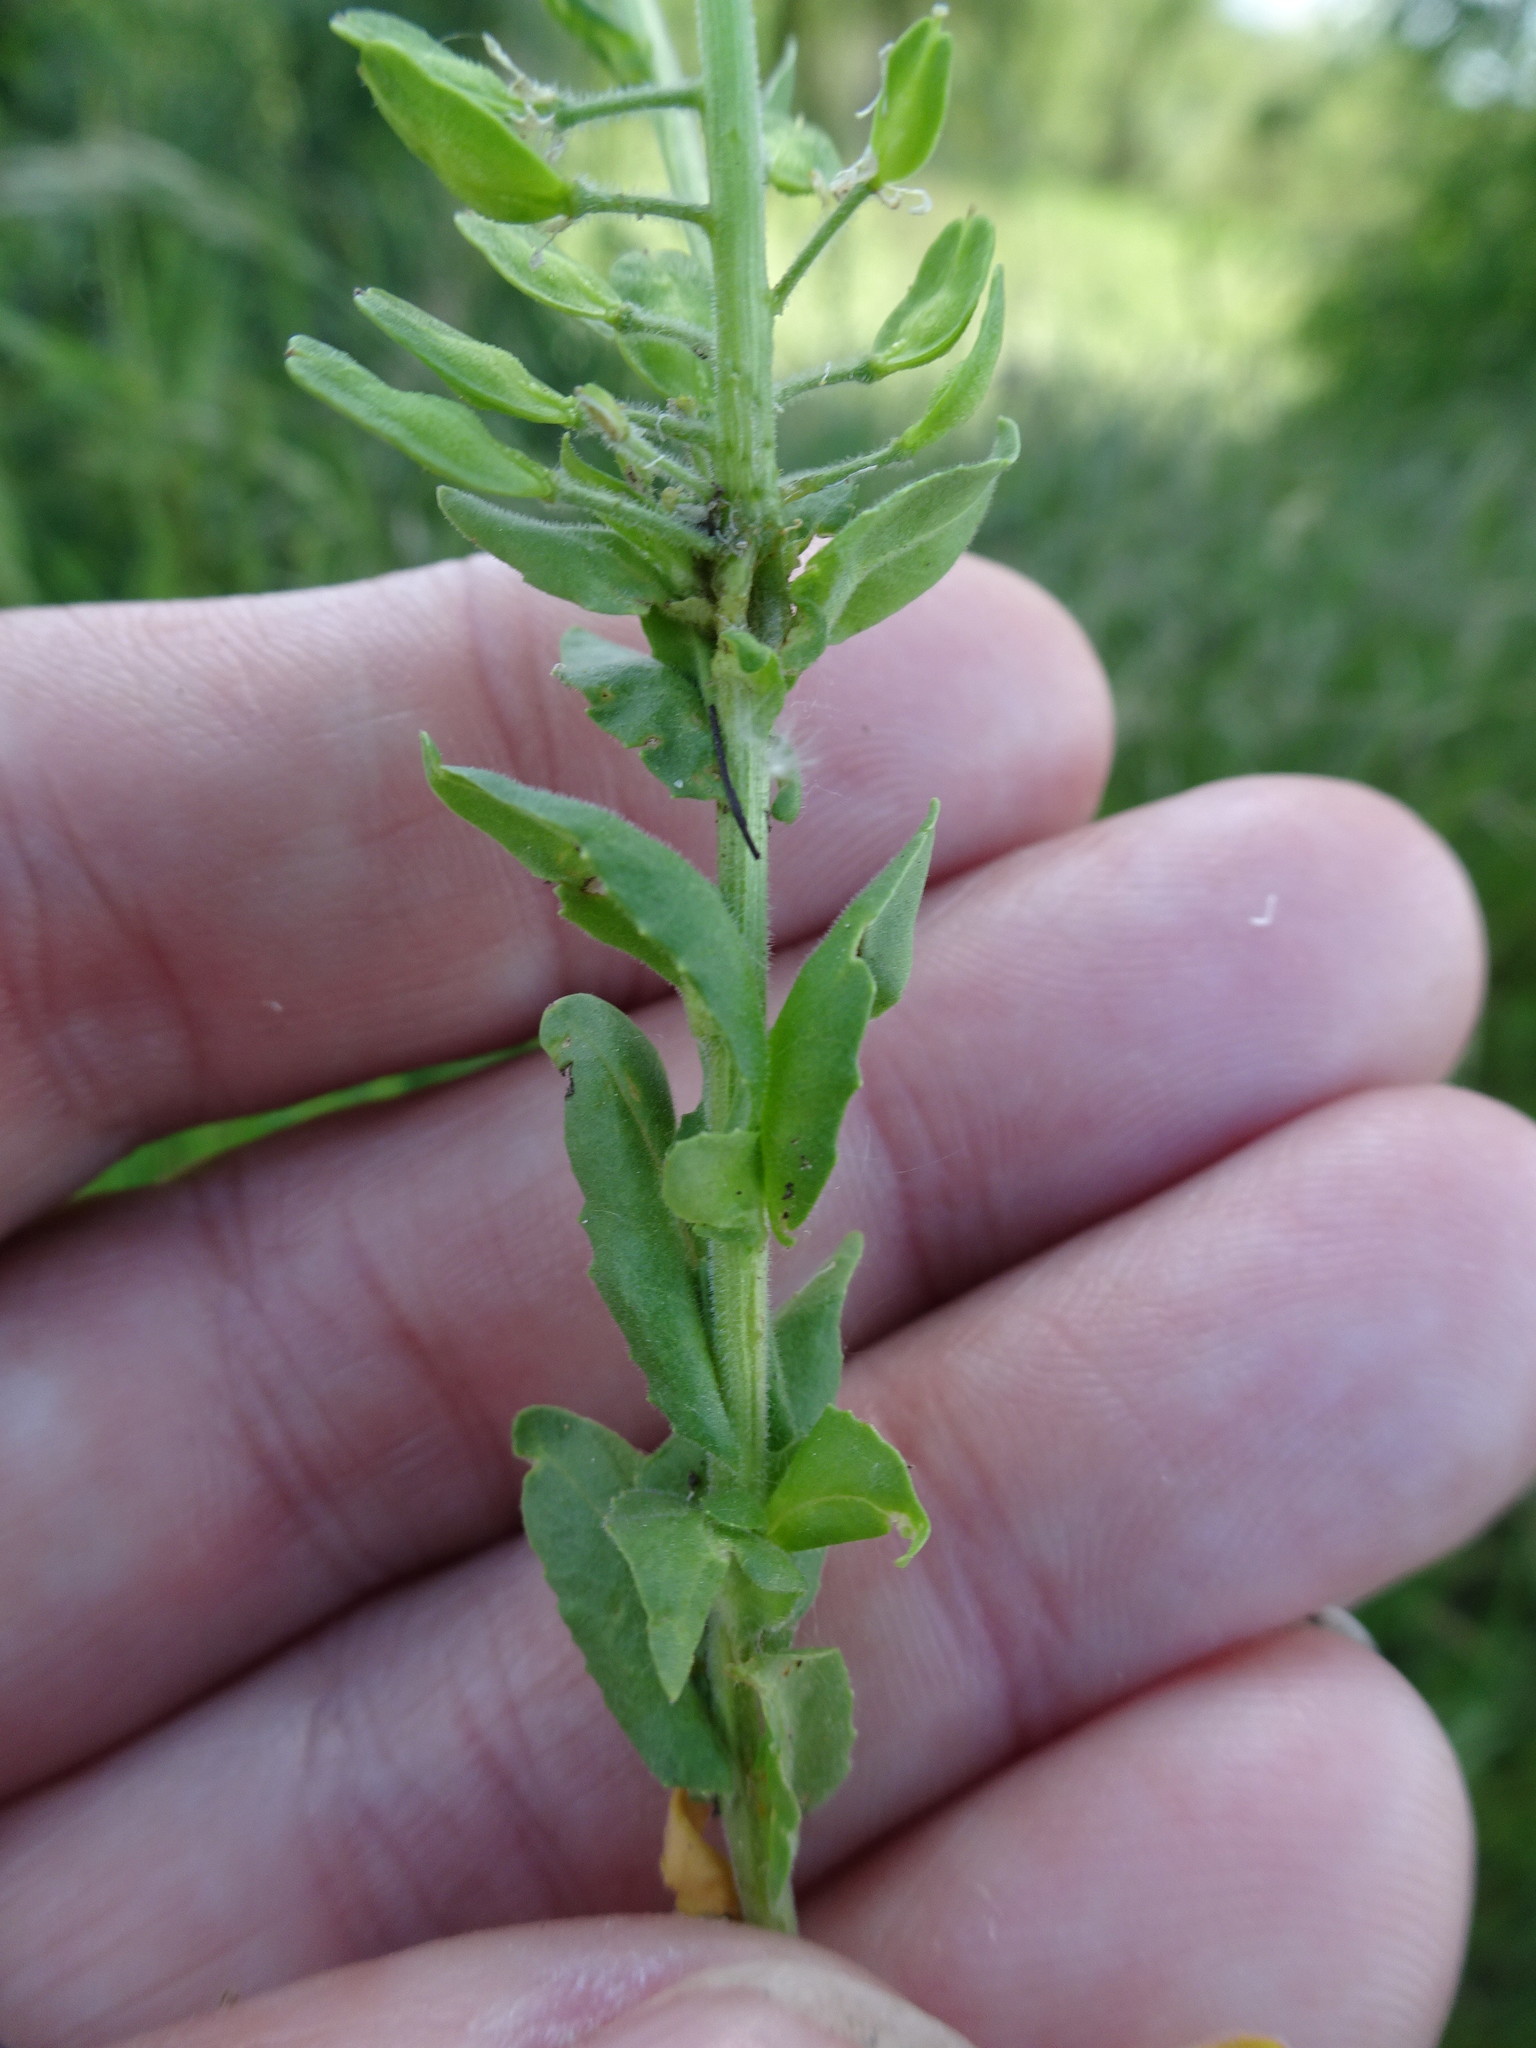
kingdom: Plantae
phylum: Tracheophyta
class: Magnoliopsida
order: Brassicales
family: Brassicaceae
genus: Lepidium
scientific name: Lepidium campestre
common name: Field pepperwort
